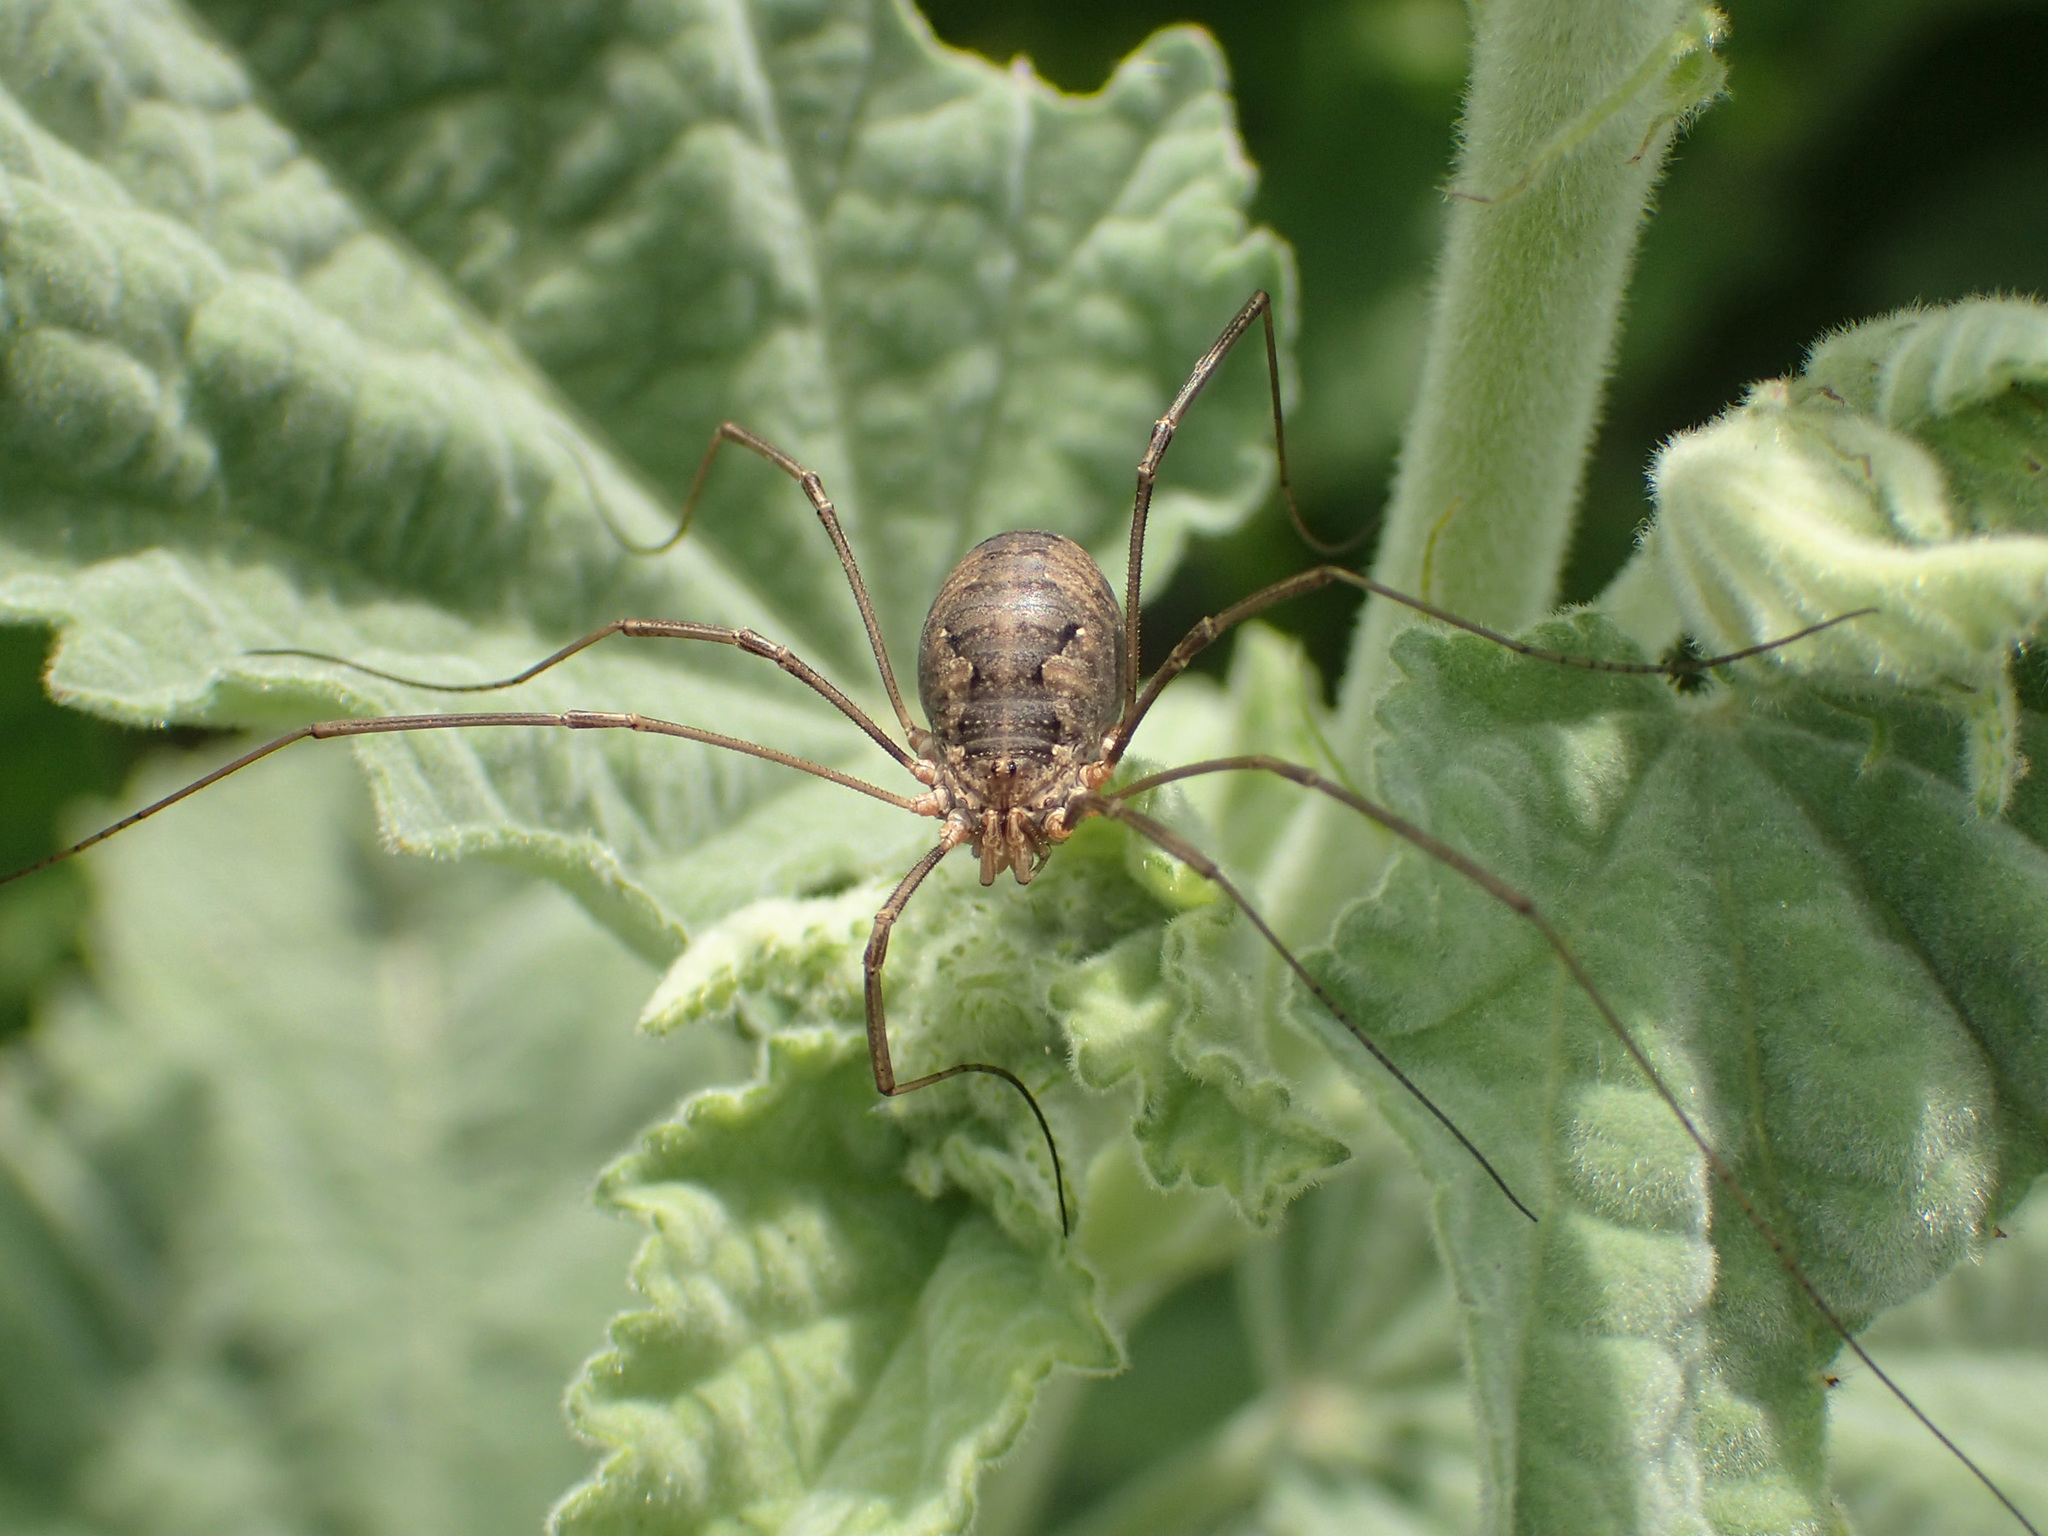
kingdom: Animalia
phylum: Arthropoda
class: Arachnida
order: Opiliones
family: Phalangiidae
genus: Phalangium
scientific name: Phalangium opilio
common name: Daddy longleg
